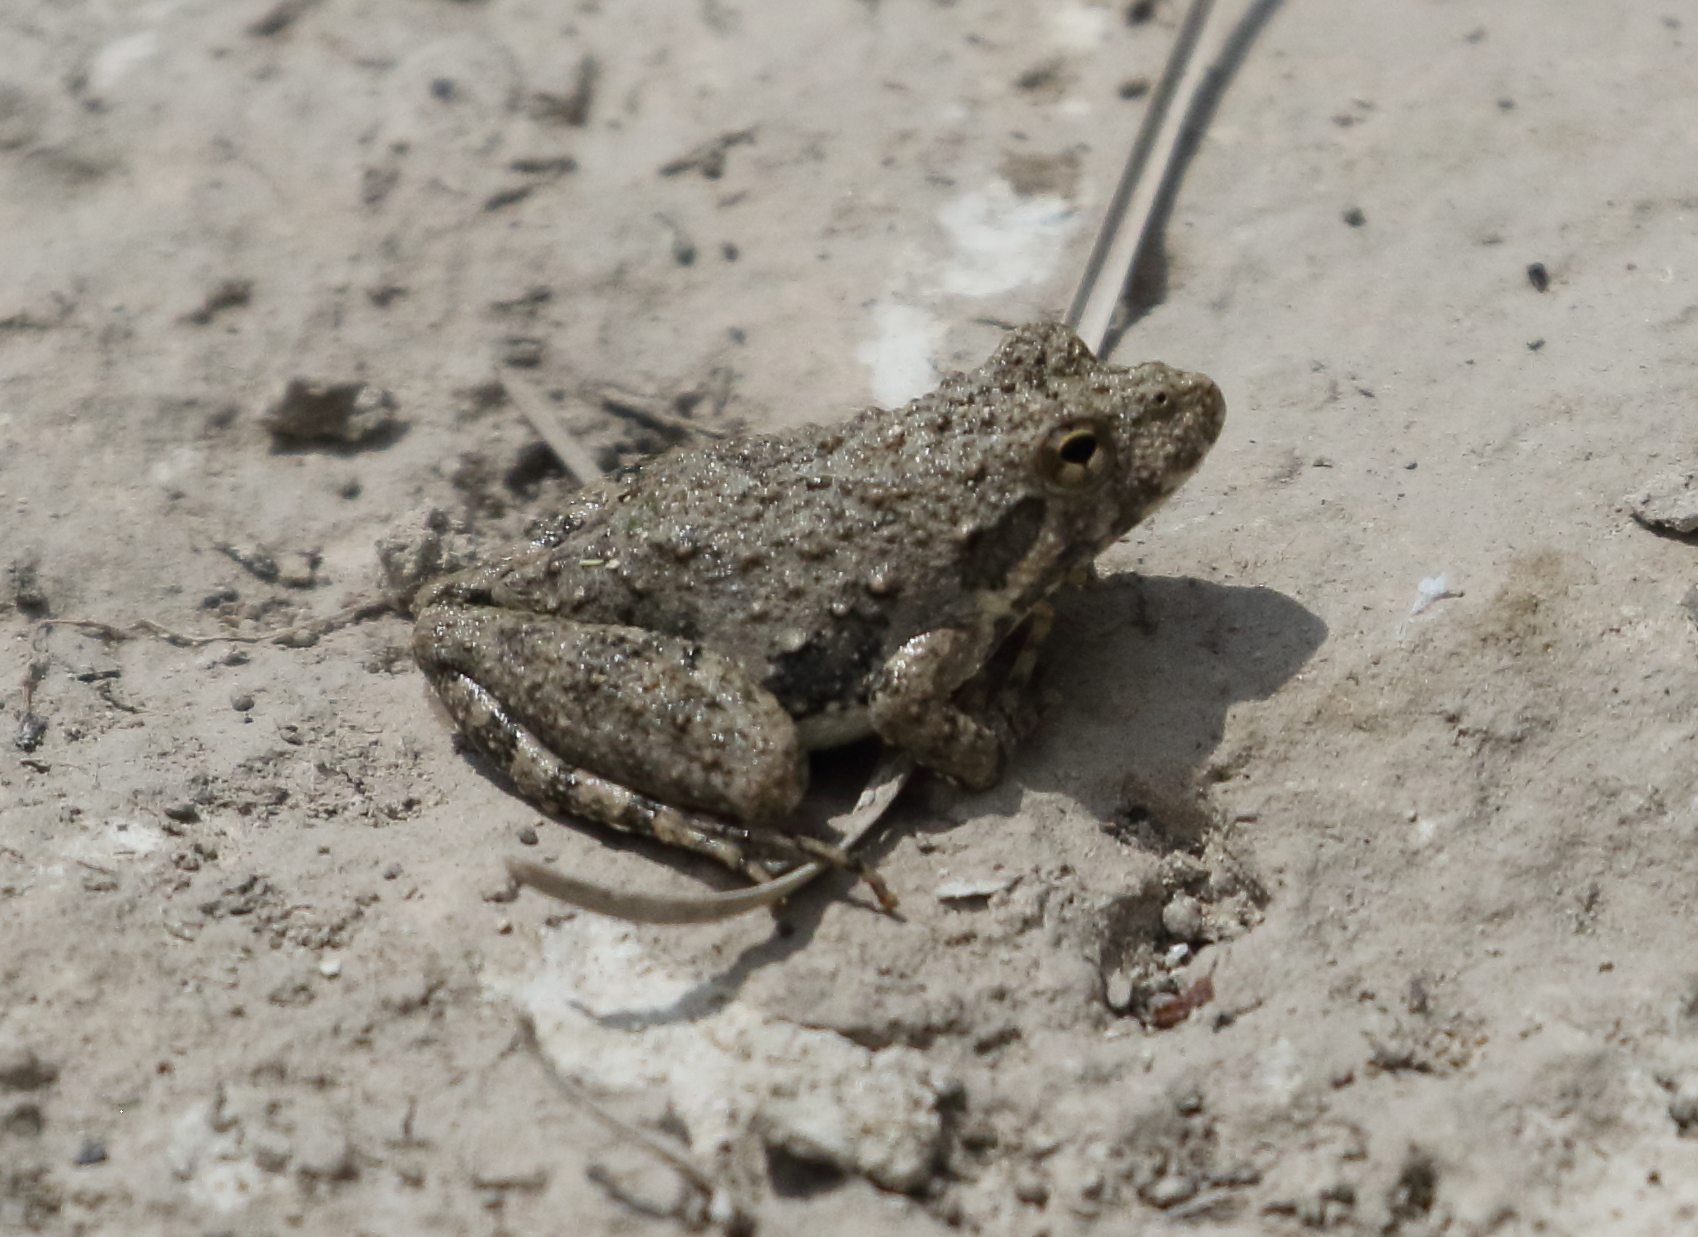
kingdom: Animalia
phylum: Chordata
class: Amphibia
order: Anura
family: Hylidae
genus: Acris
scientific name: Acris blanchardi
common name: Blanchard's cricket frog
